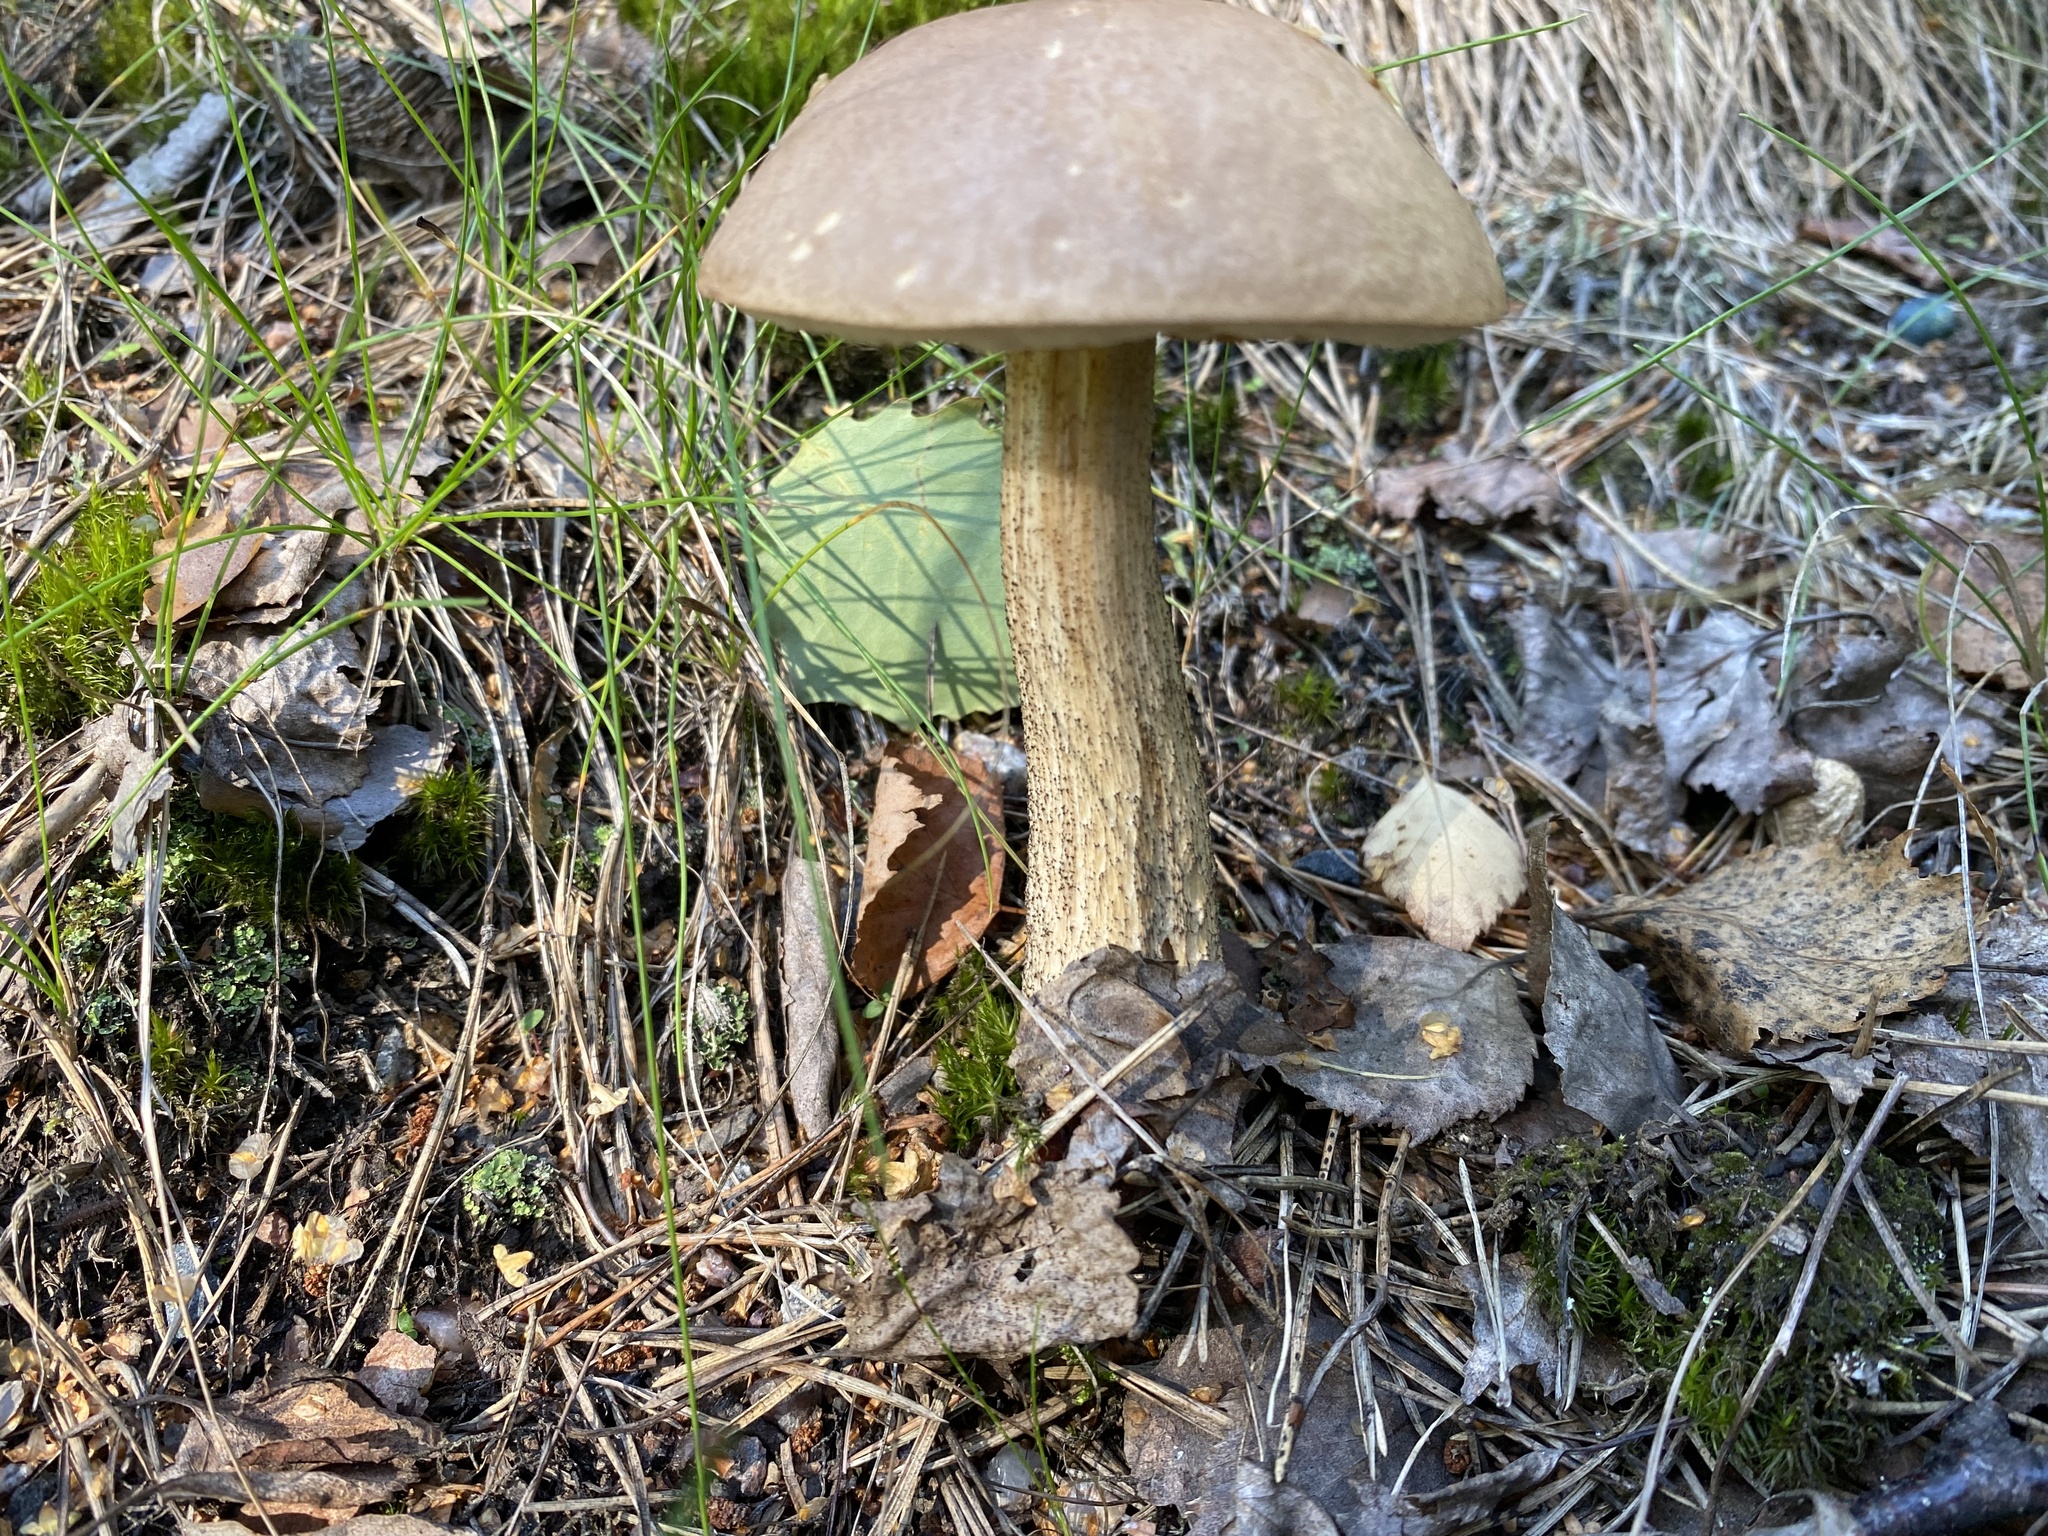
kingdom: Fungi
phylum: Basidiomycota
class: Agaricomycetes
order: Boletales
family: Boletaceae
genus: Leccinum
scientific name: Leccinum scabrum
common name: Blushing bolete
